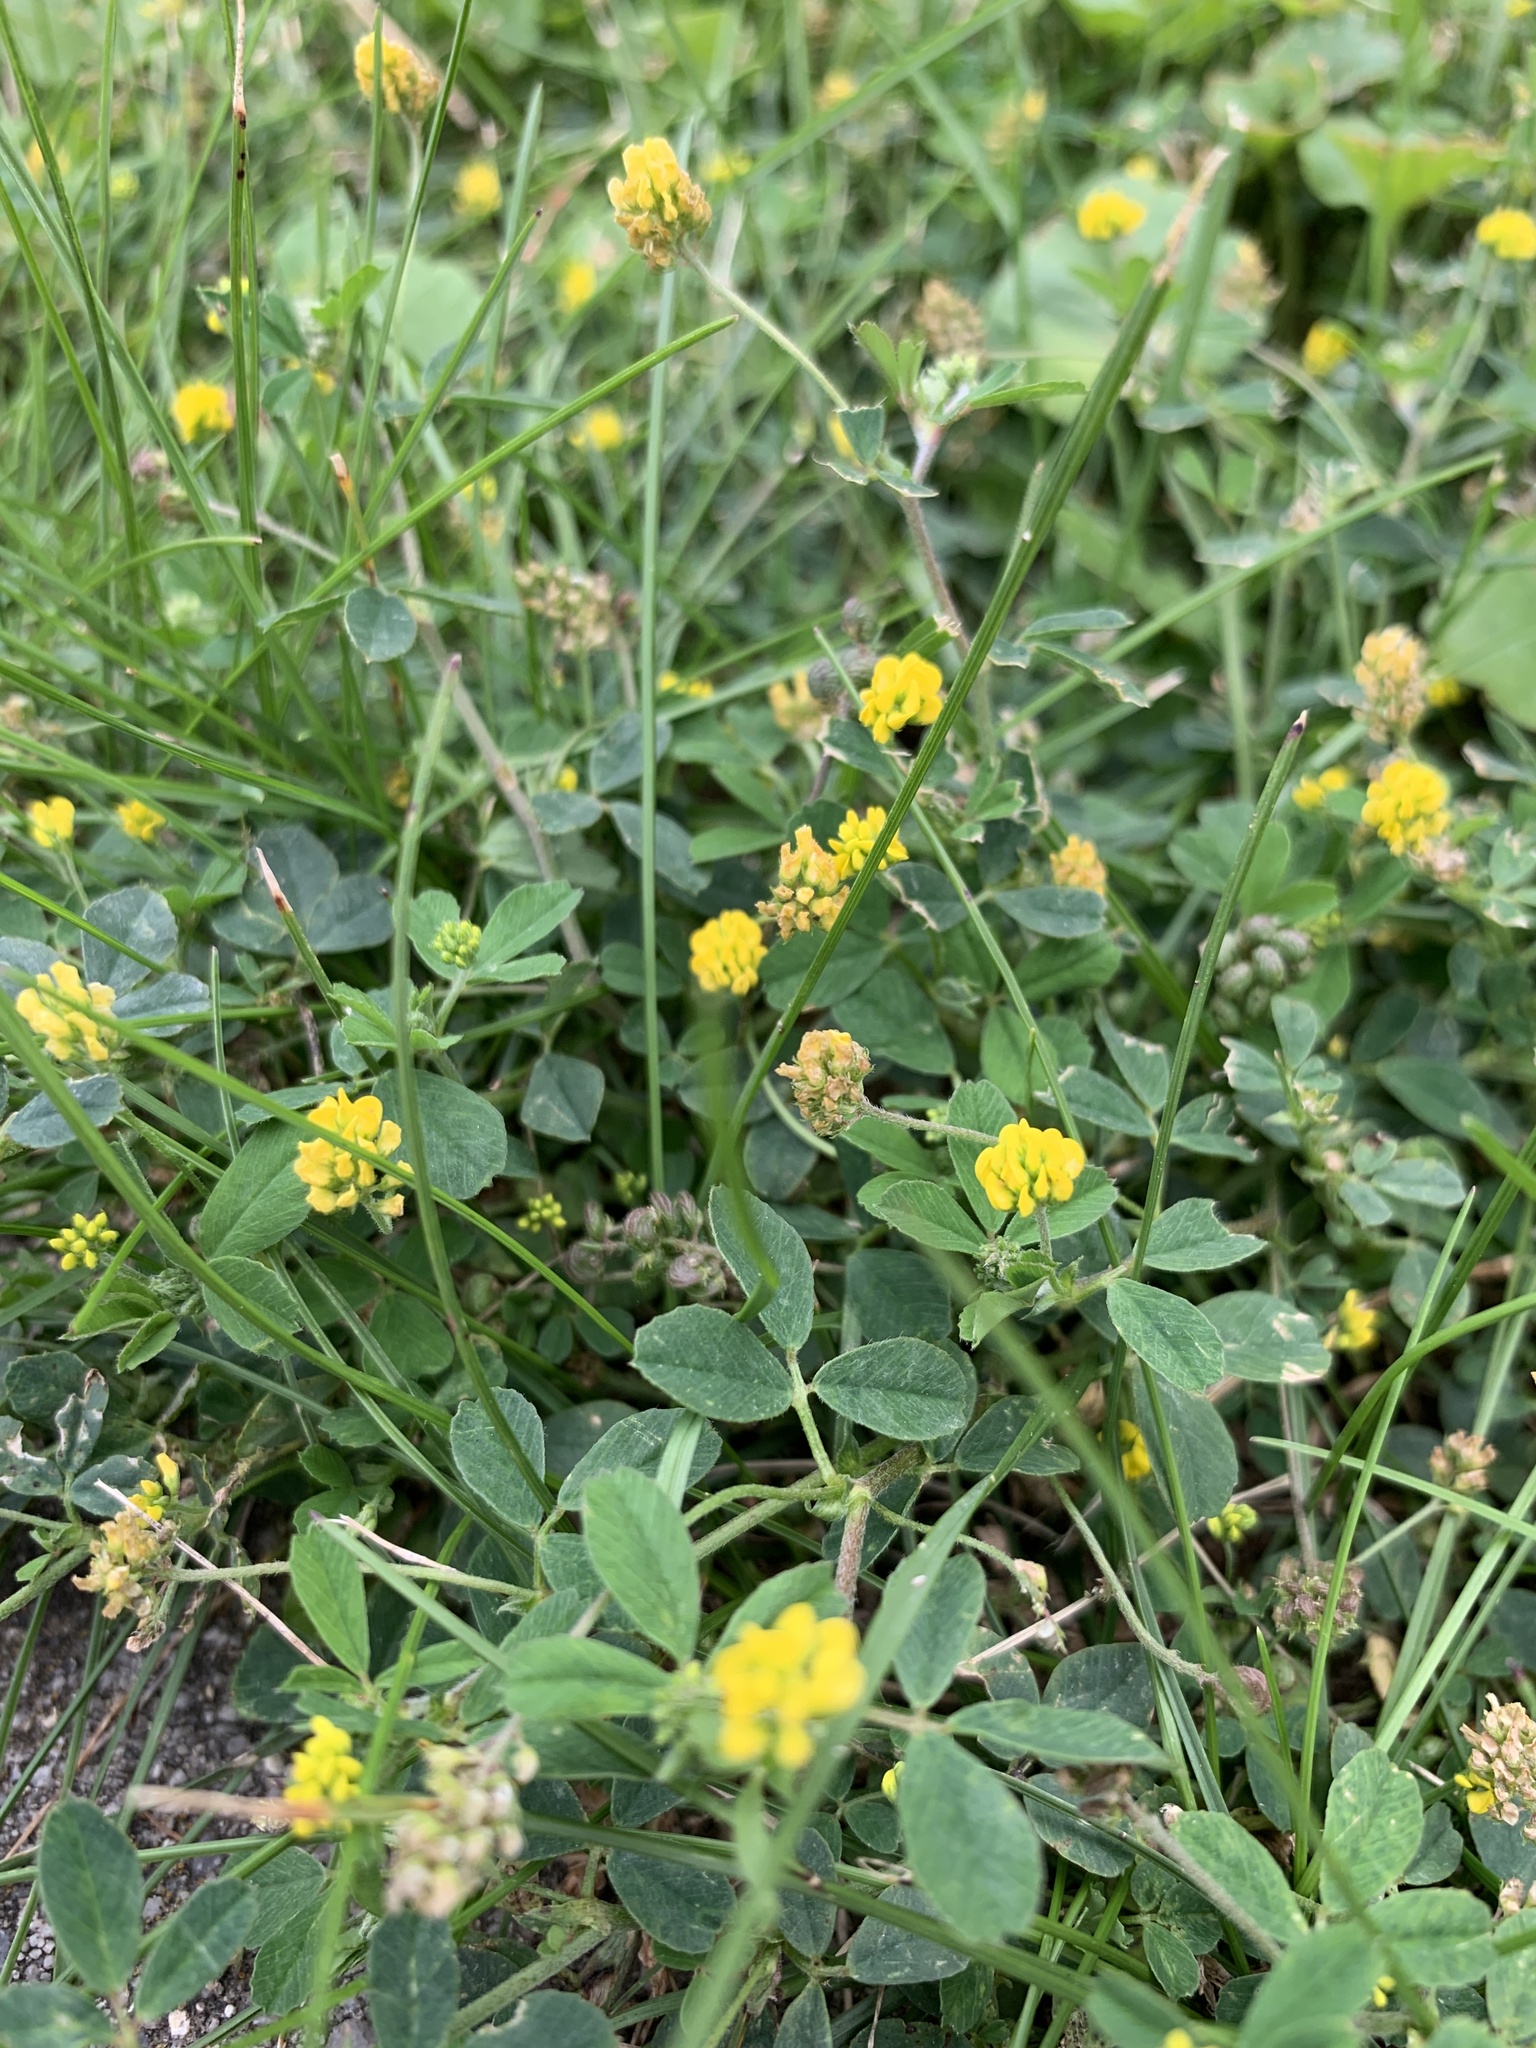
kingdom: Plantae
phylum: Tracheophyta
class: Magnoliopsida
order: Fabales
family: Fabaceae
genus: Medicago
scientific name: Medicago lupulina
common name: Black medick
